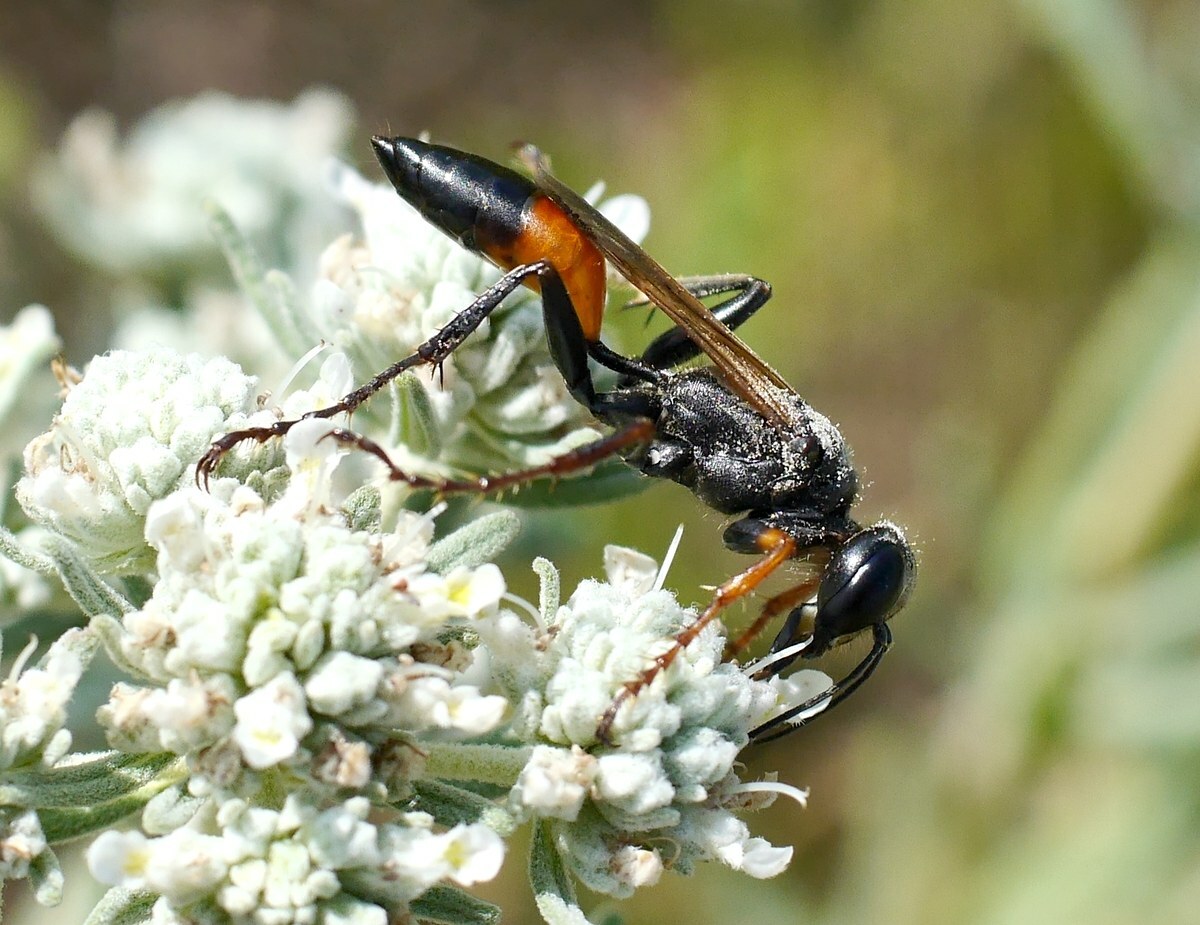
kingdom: Animalia
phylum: Arthropoda
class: Insecta
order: Hymenoptera
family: Sphecidae
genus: Palmodes
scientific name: Palmodes strigulosus
